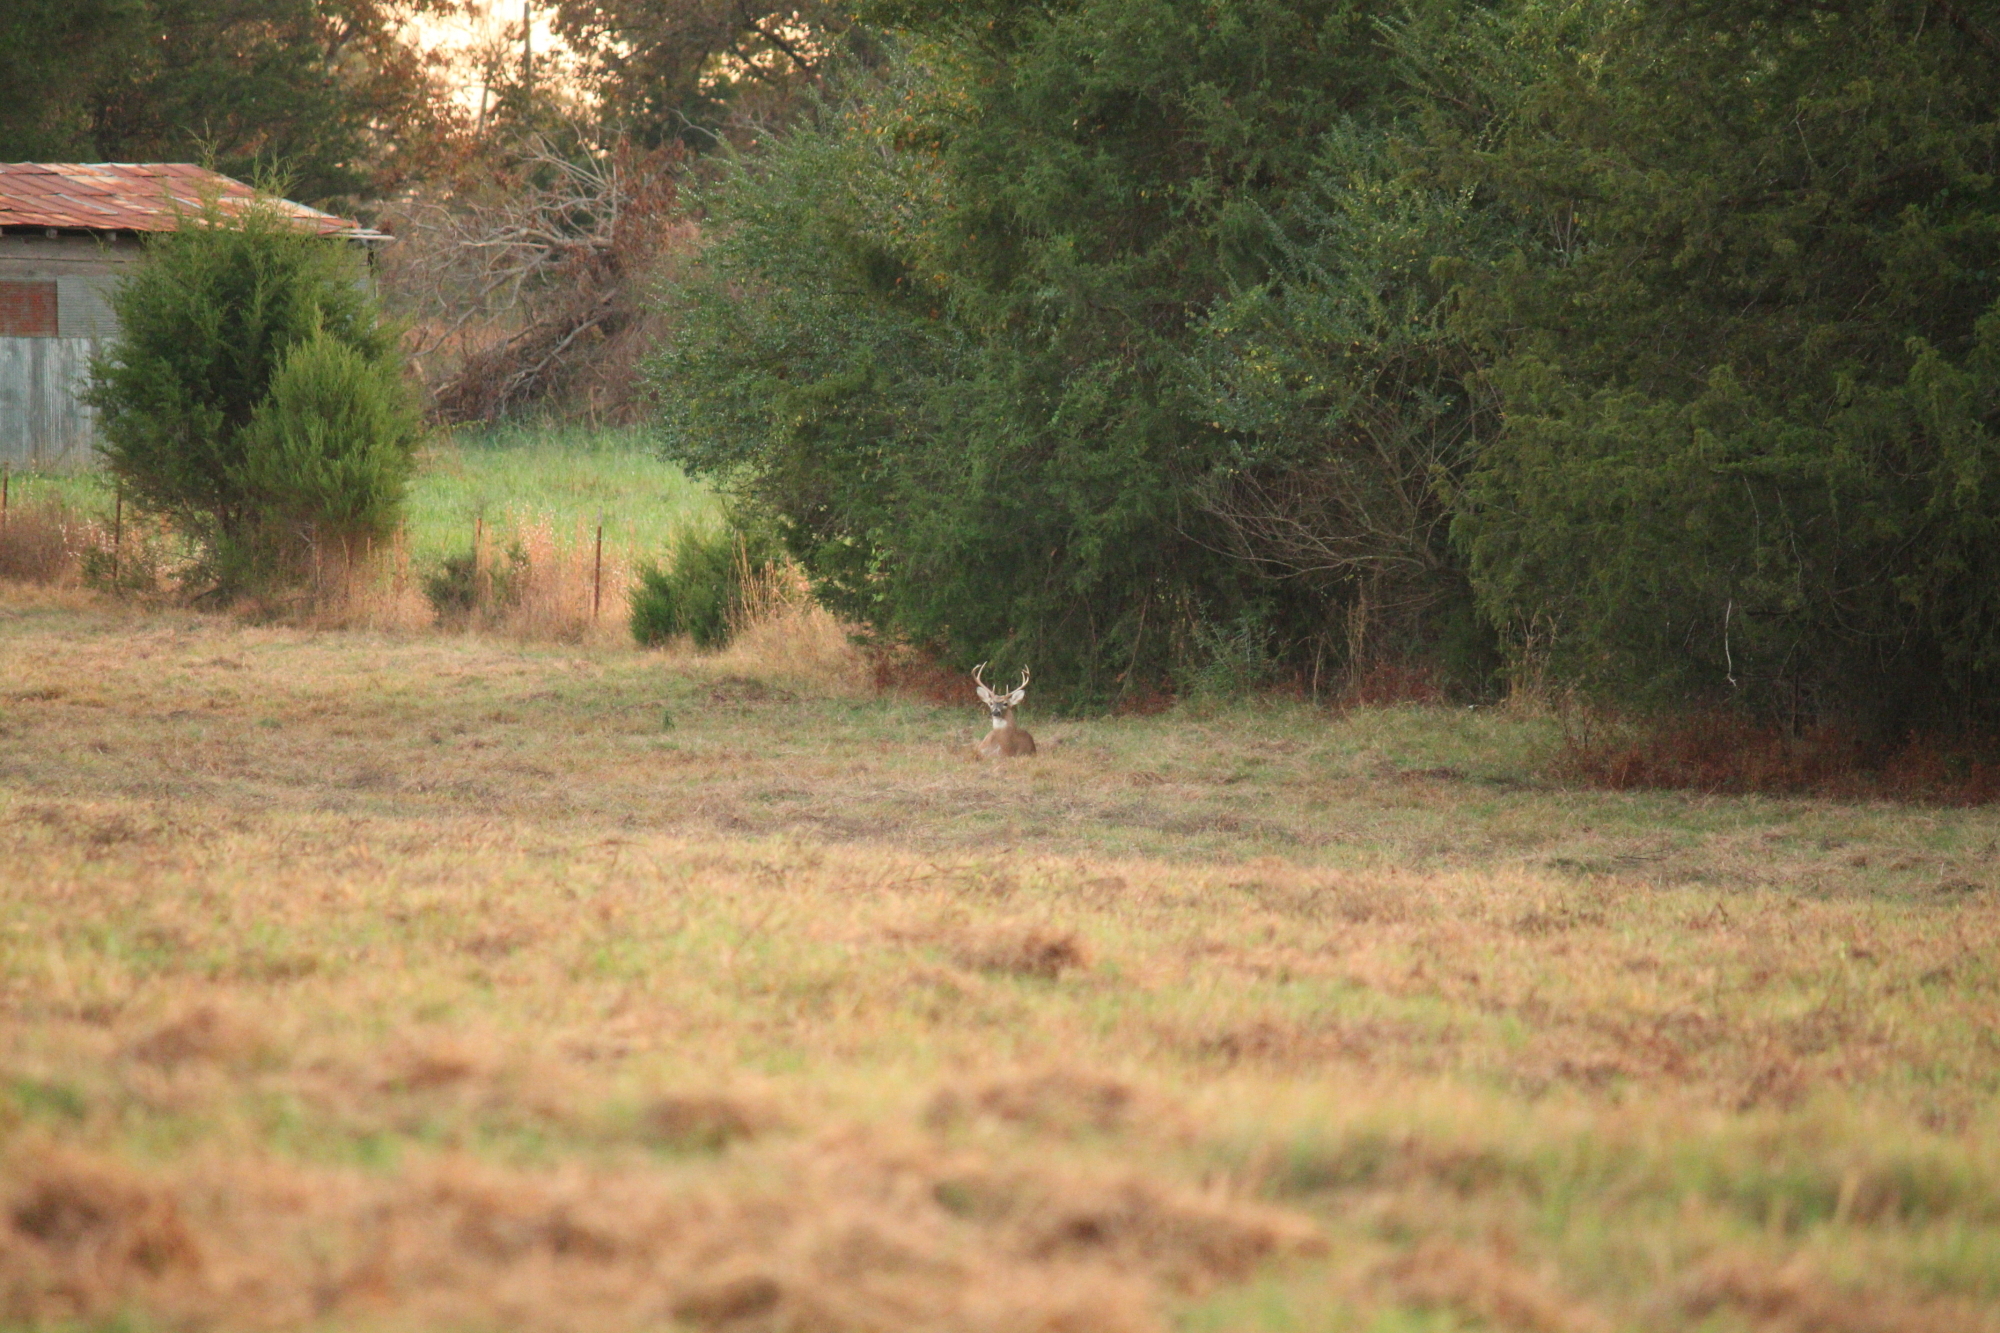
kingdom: Animalia
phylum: Chordata
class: Mammalia
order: Artiodactyla
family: Cervidae
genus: Odocoileus
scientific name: Odocoileus virginianus
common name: White-tailed deer
